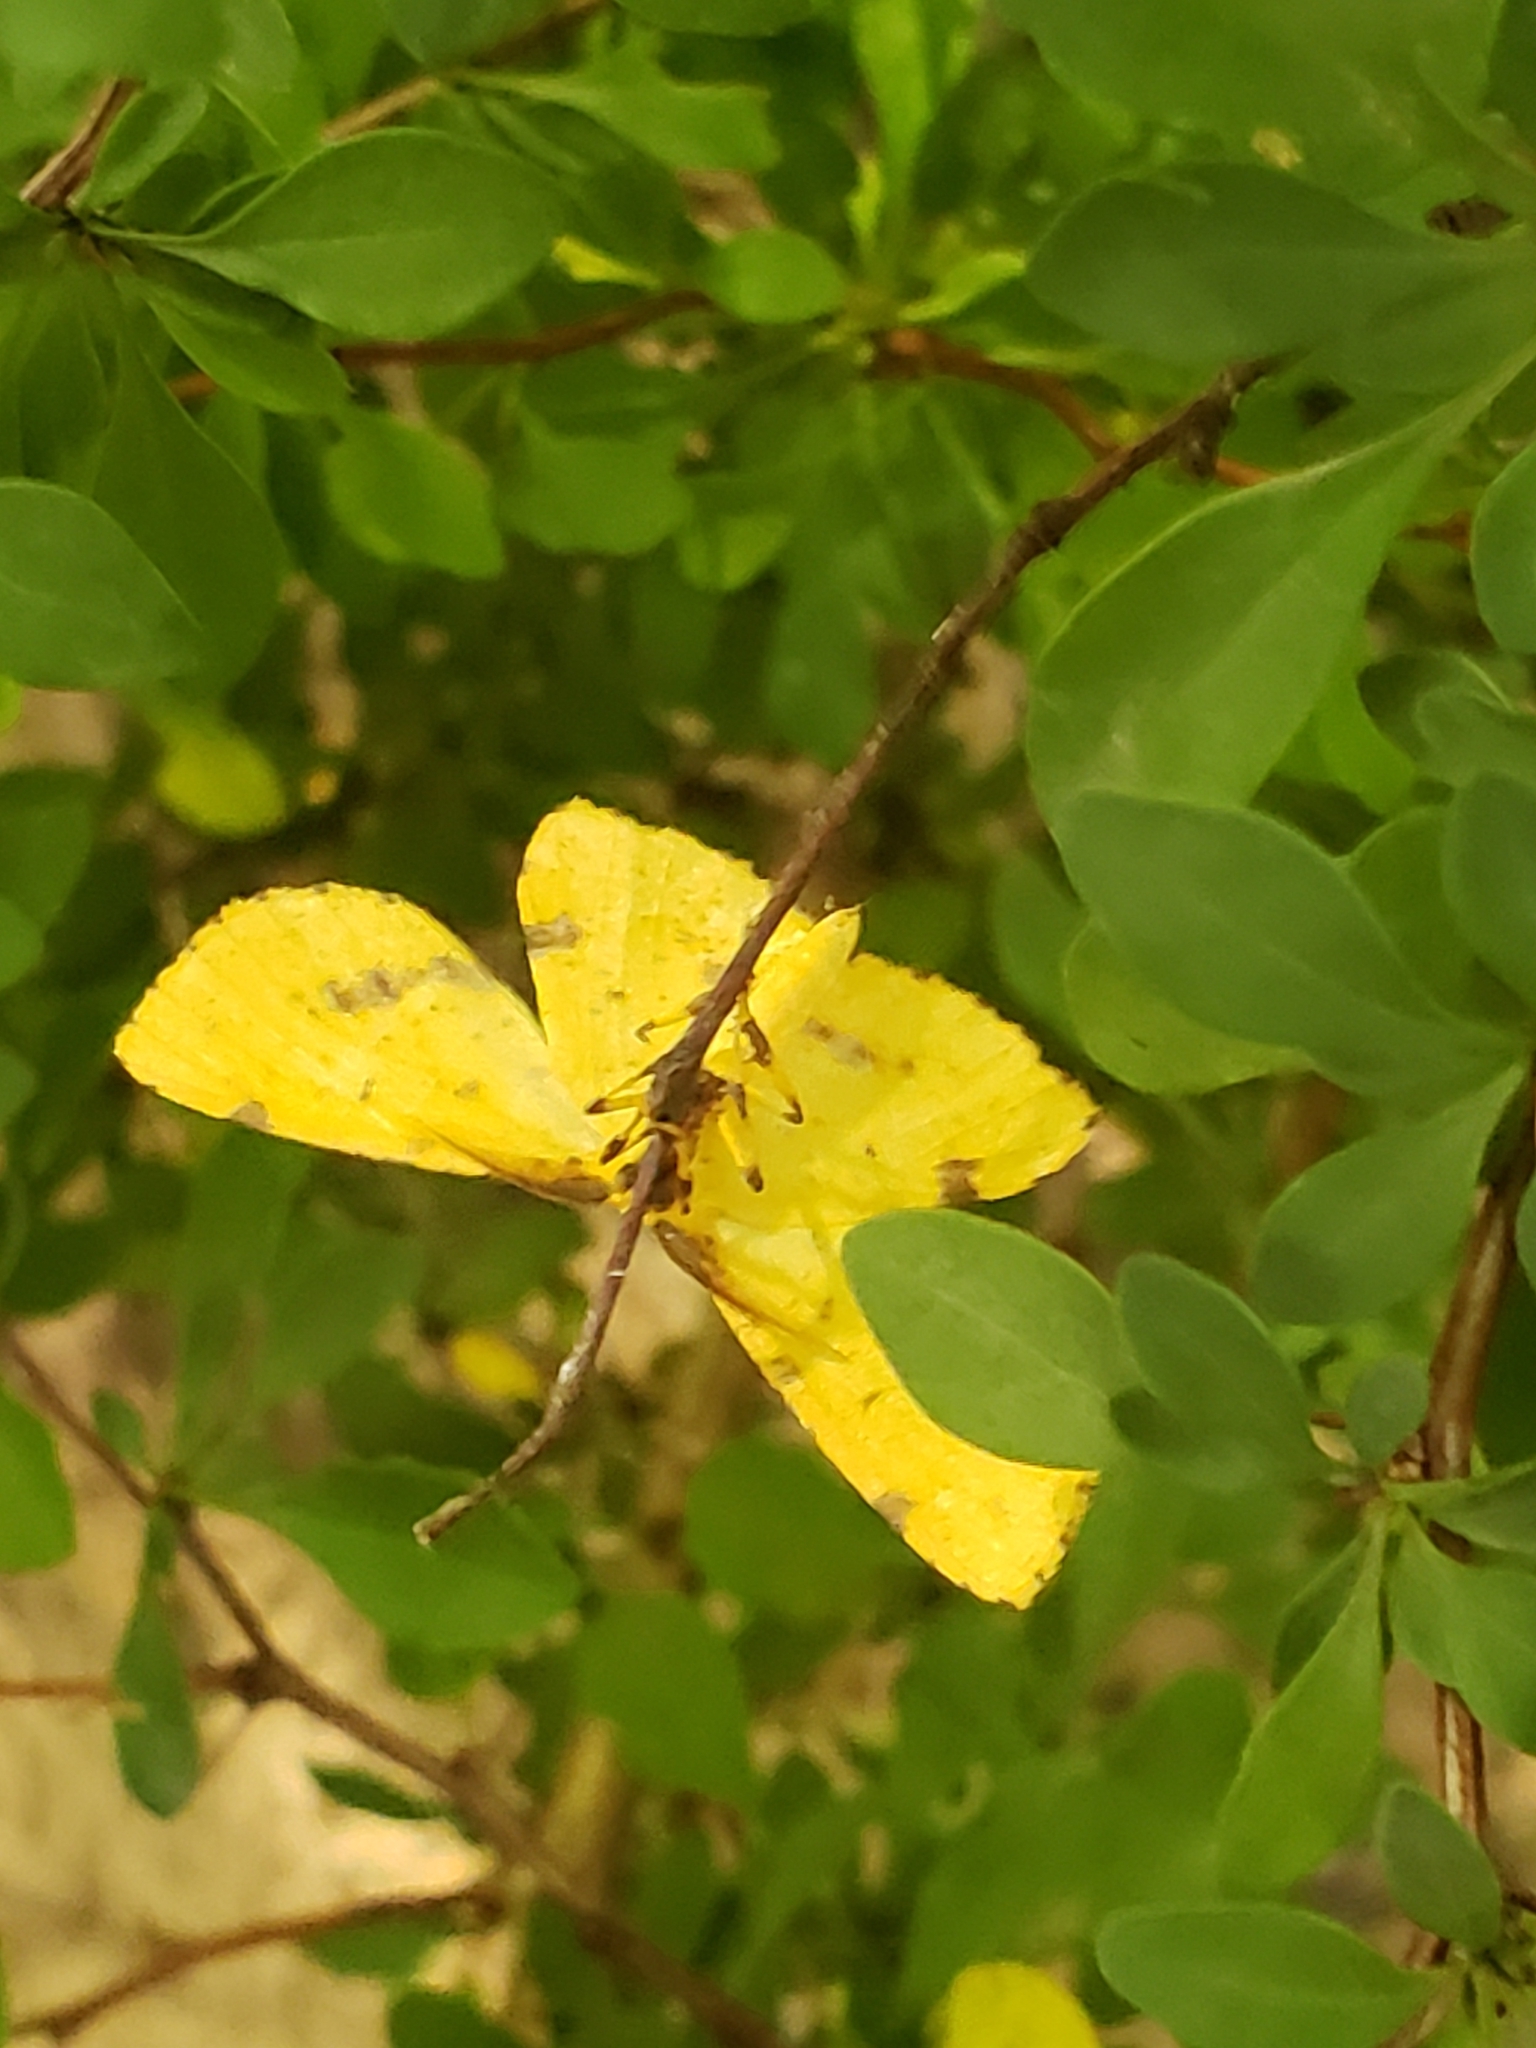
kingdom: Animalia
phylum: Arthropoda
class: Insecta
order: Lepidoptera
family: Geometridae
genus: Xanthotype
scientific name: Xanthotype
